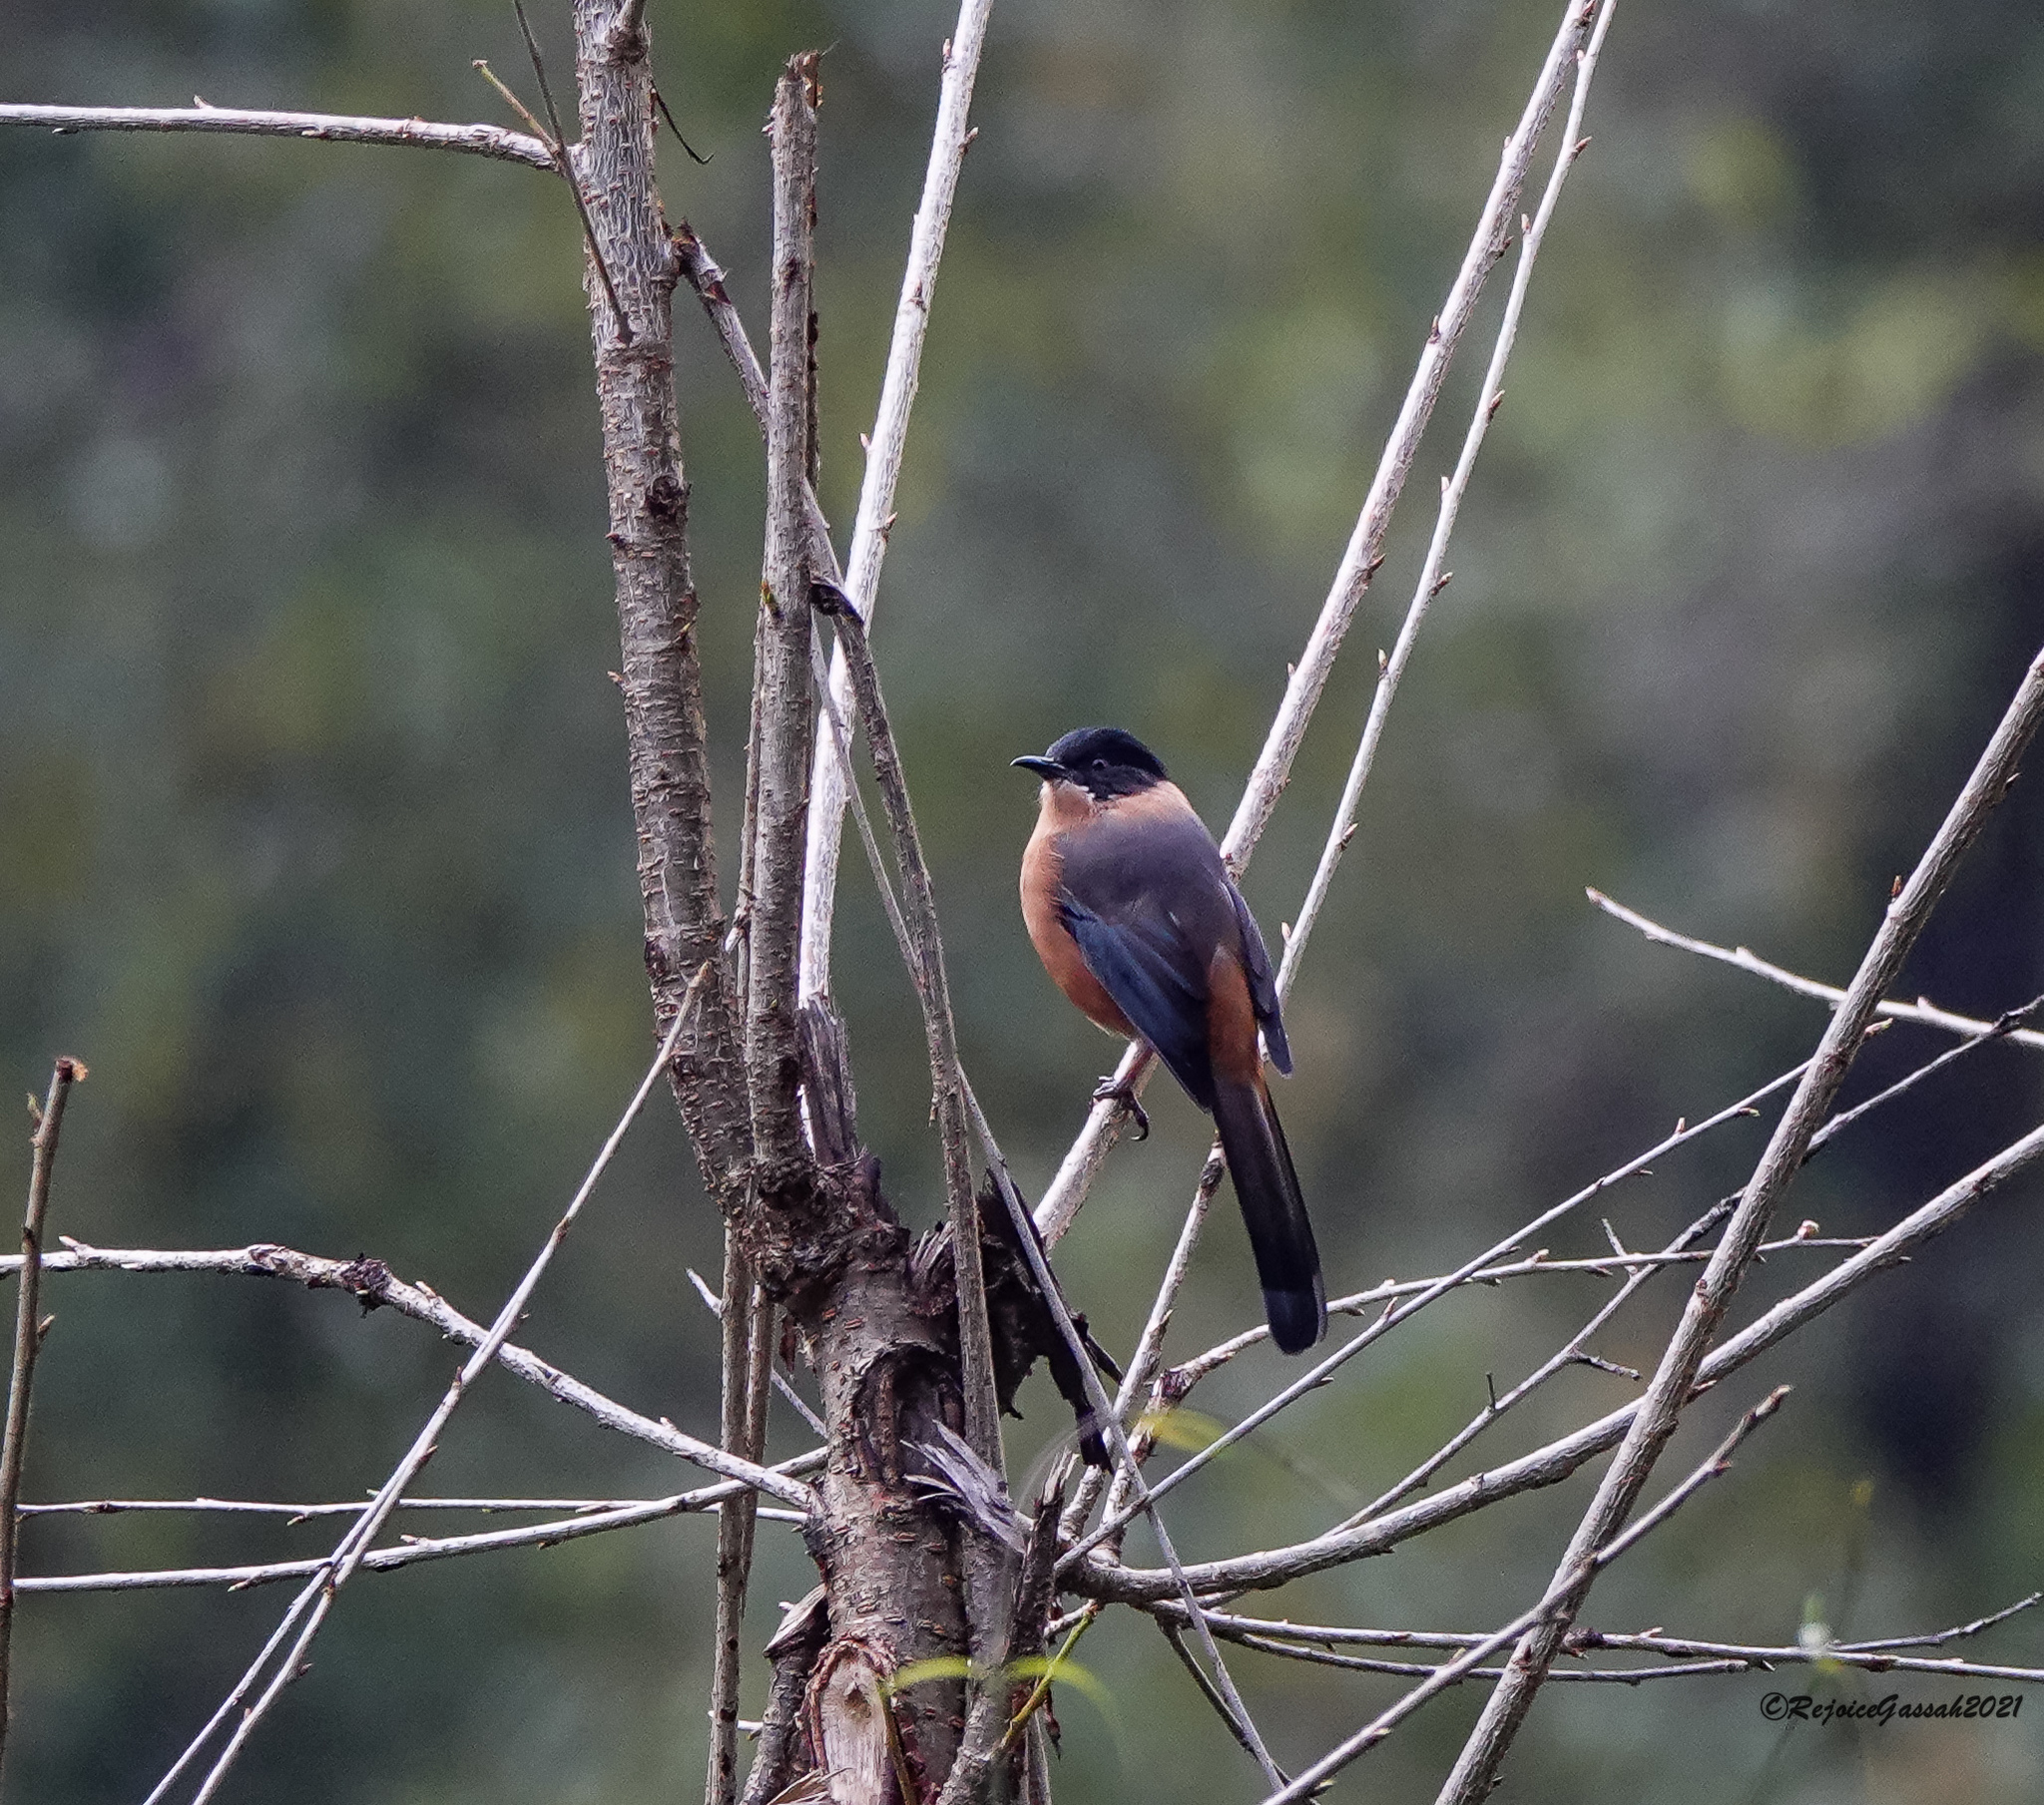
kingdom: Animalia
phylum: Chordata
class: Aves
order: Passeriformes
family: Leiothrichidae
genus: Heterophasia
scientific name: Heterophasia capistrata
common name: Rufous sibia
